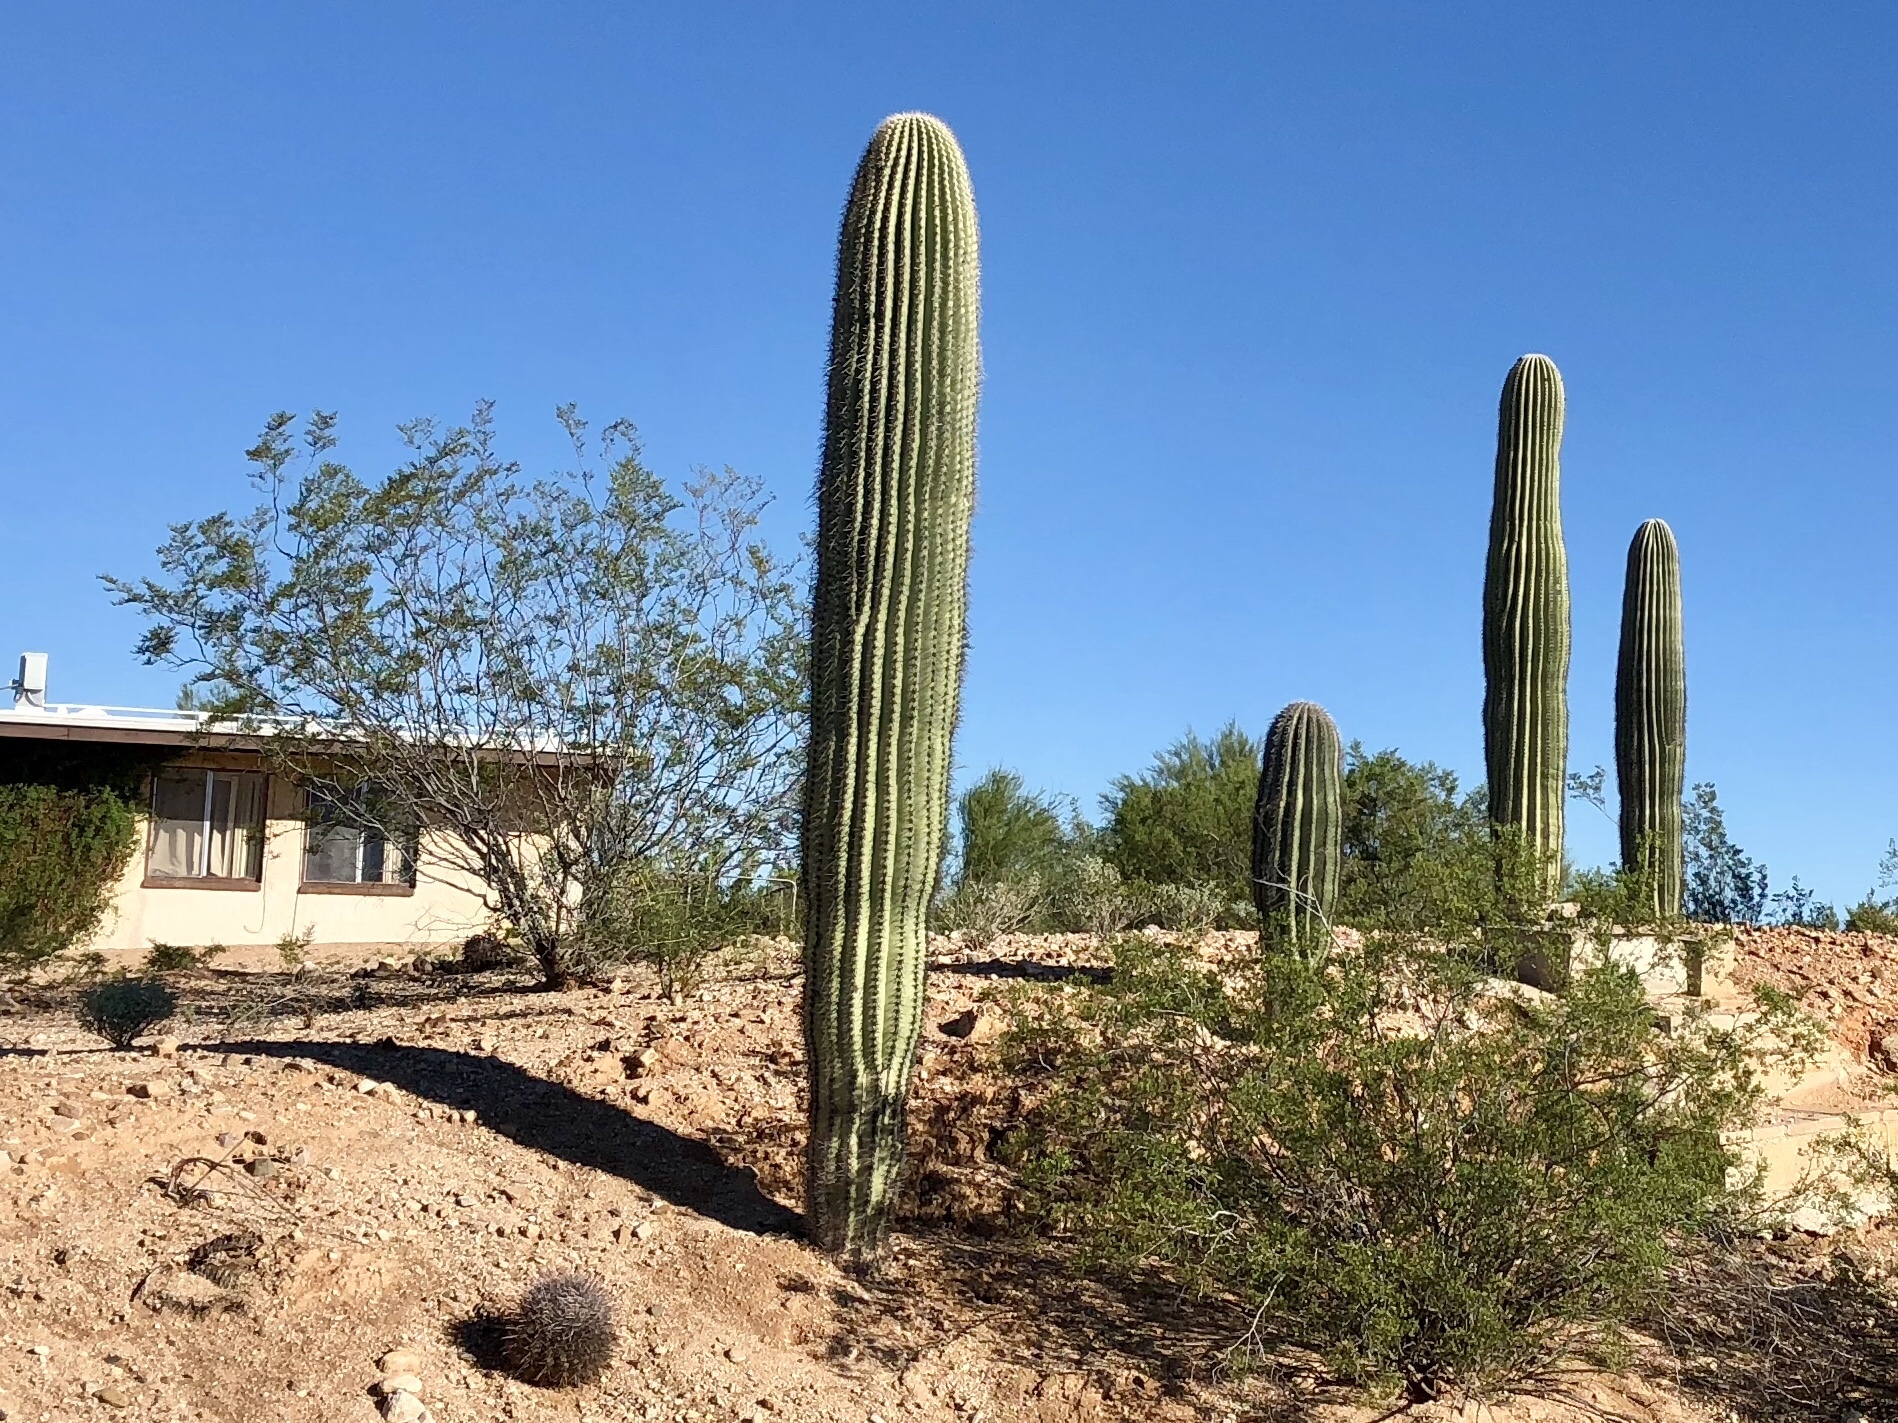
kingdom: Plantae
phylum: Tracheophyta
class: Magnoliopsida
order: Caryophyllales
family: Cactaceae
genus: Carnegiea
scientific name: Carnegiea gigantea
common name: Saguaro
